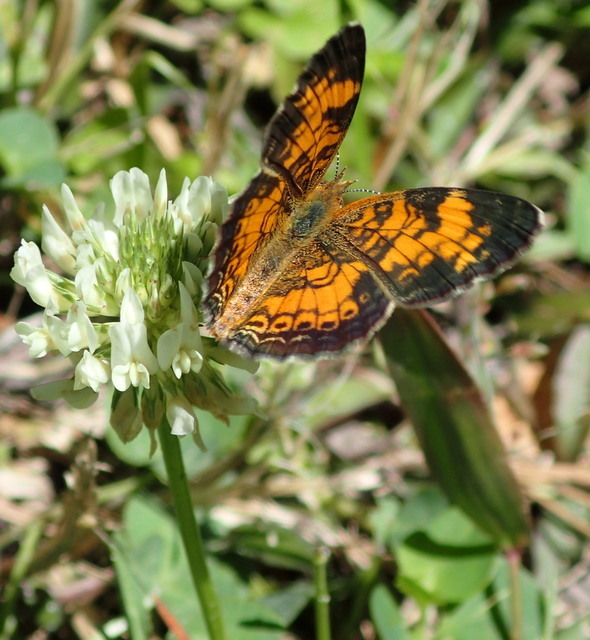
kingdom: Animalia
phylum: Arthropoda
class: Insecta
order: Lepidoptera
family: Nymphalidae
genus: Phyciodes
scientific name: Phyciodes tharos
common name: Pearl crescent
